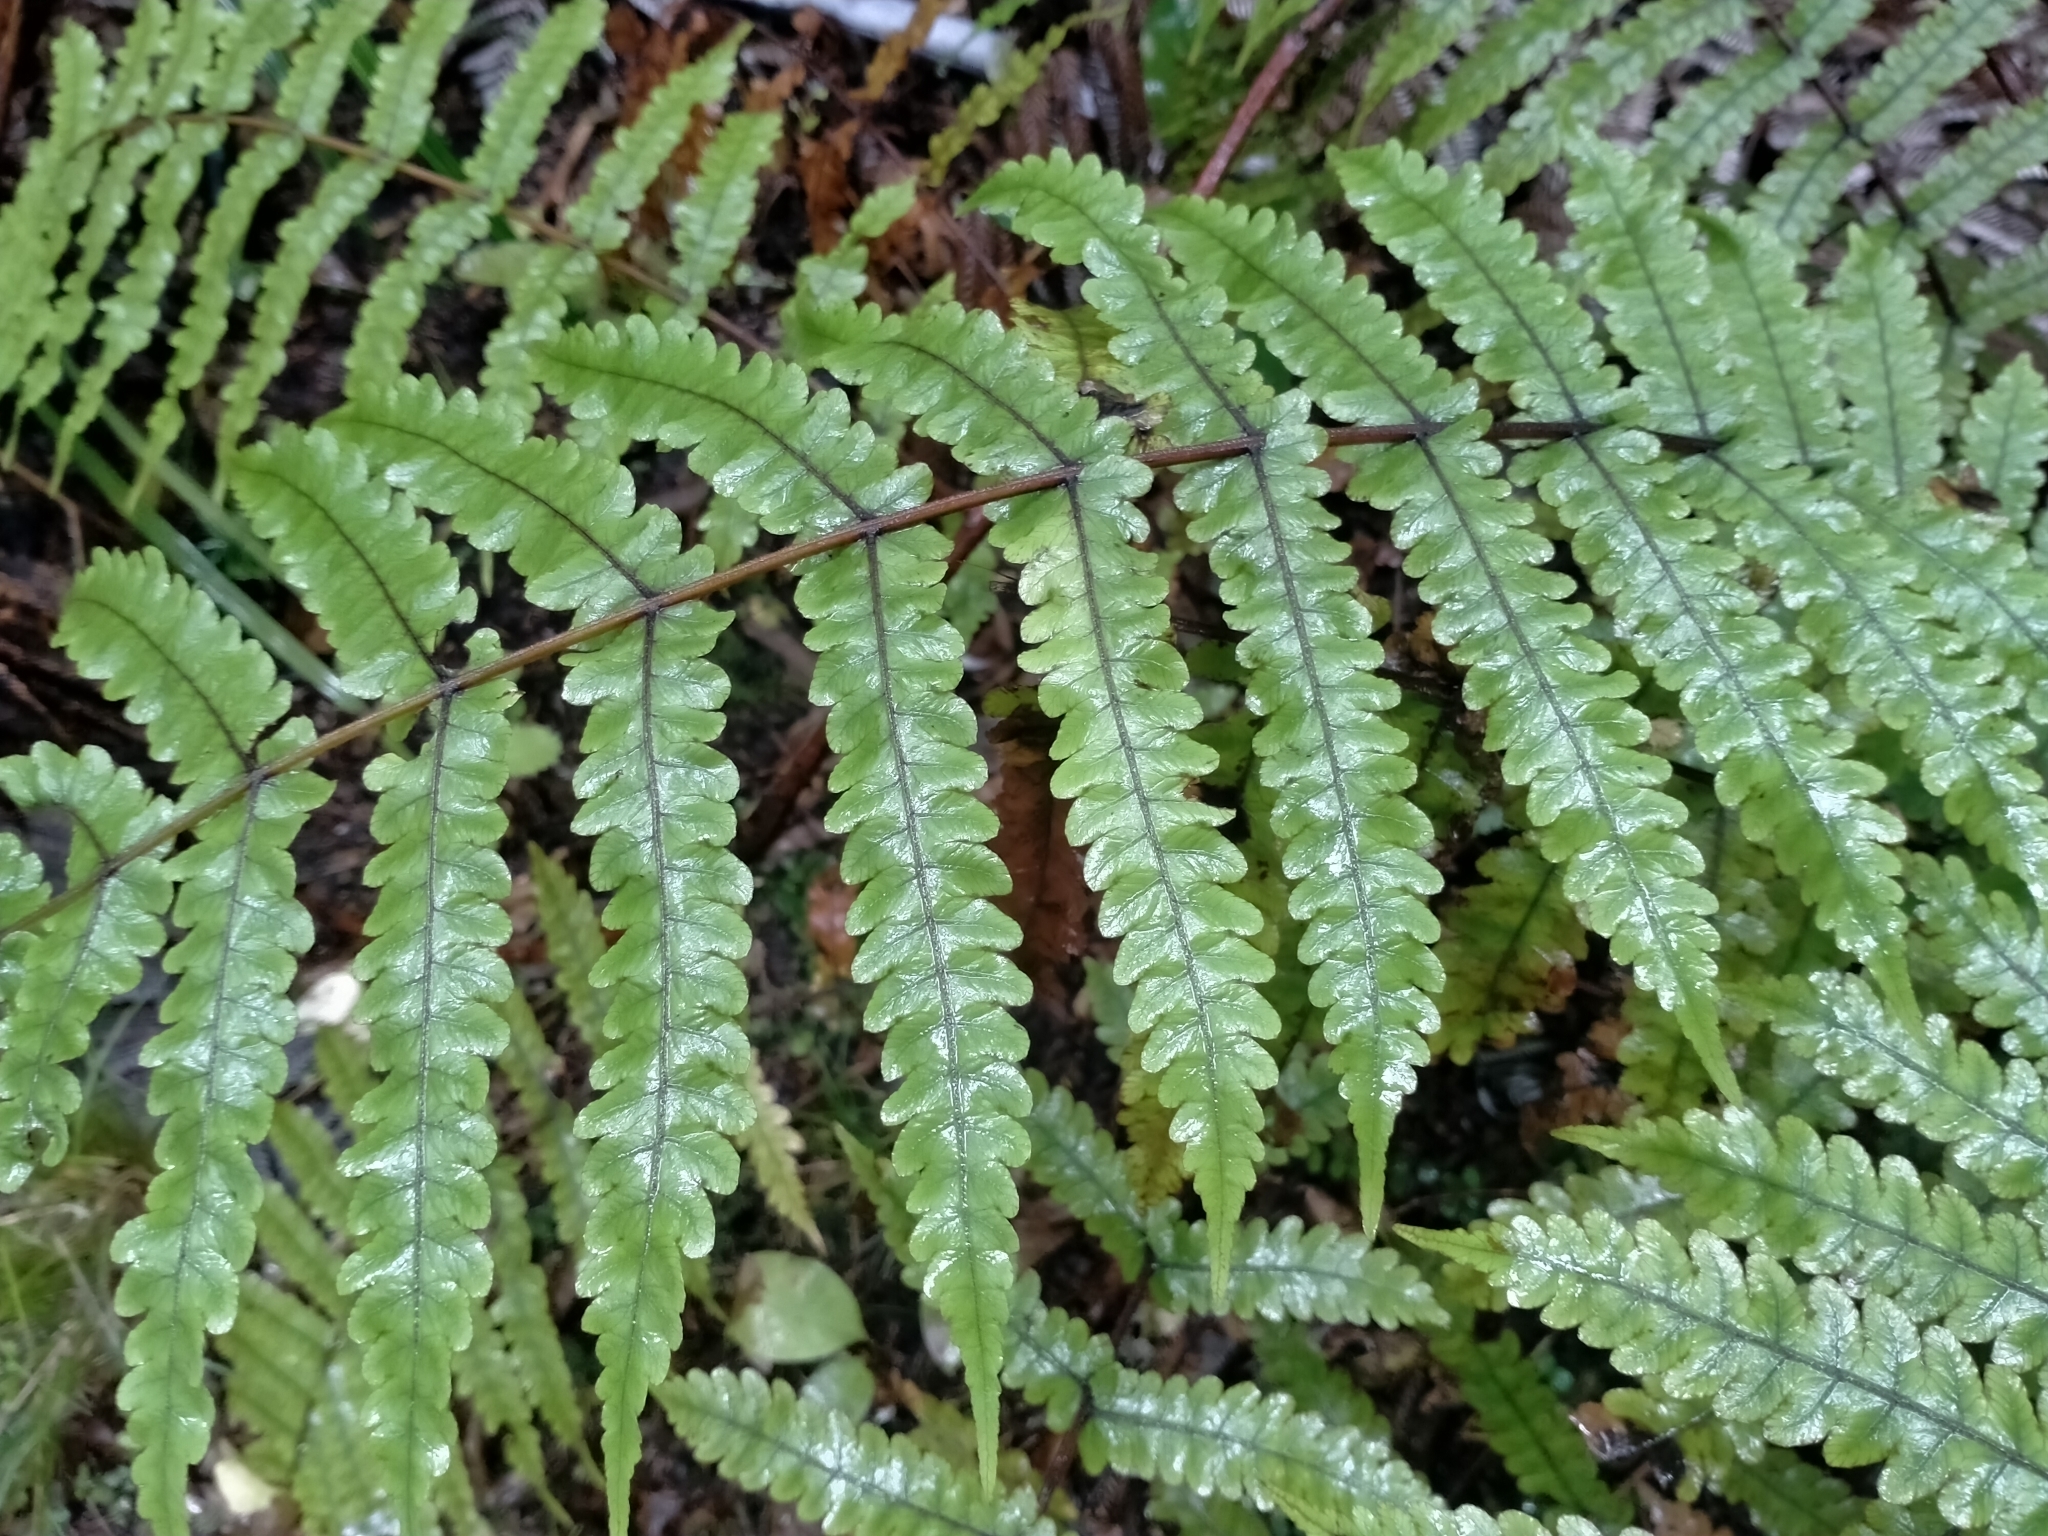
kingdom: Plantae
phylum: Tracheophyta
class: Polypodiopsida
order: Polypodiales
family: Thelypteridaceae
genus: Pakau
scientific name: Pakau pennigera
